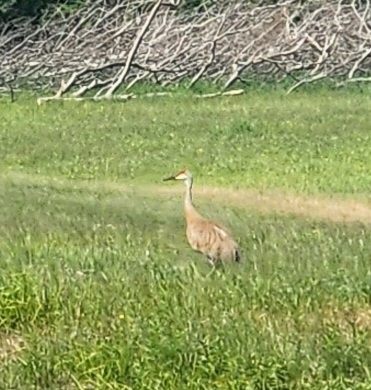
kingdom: Animalia
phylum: Chordata
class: Aves
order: Gruiformes
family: Gruidae
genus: Grus
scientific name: Grus canadensis
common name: Sandhill crane
